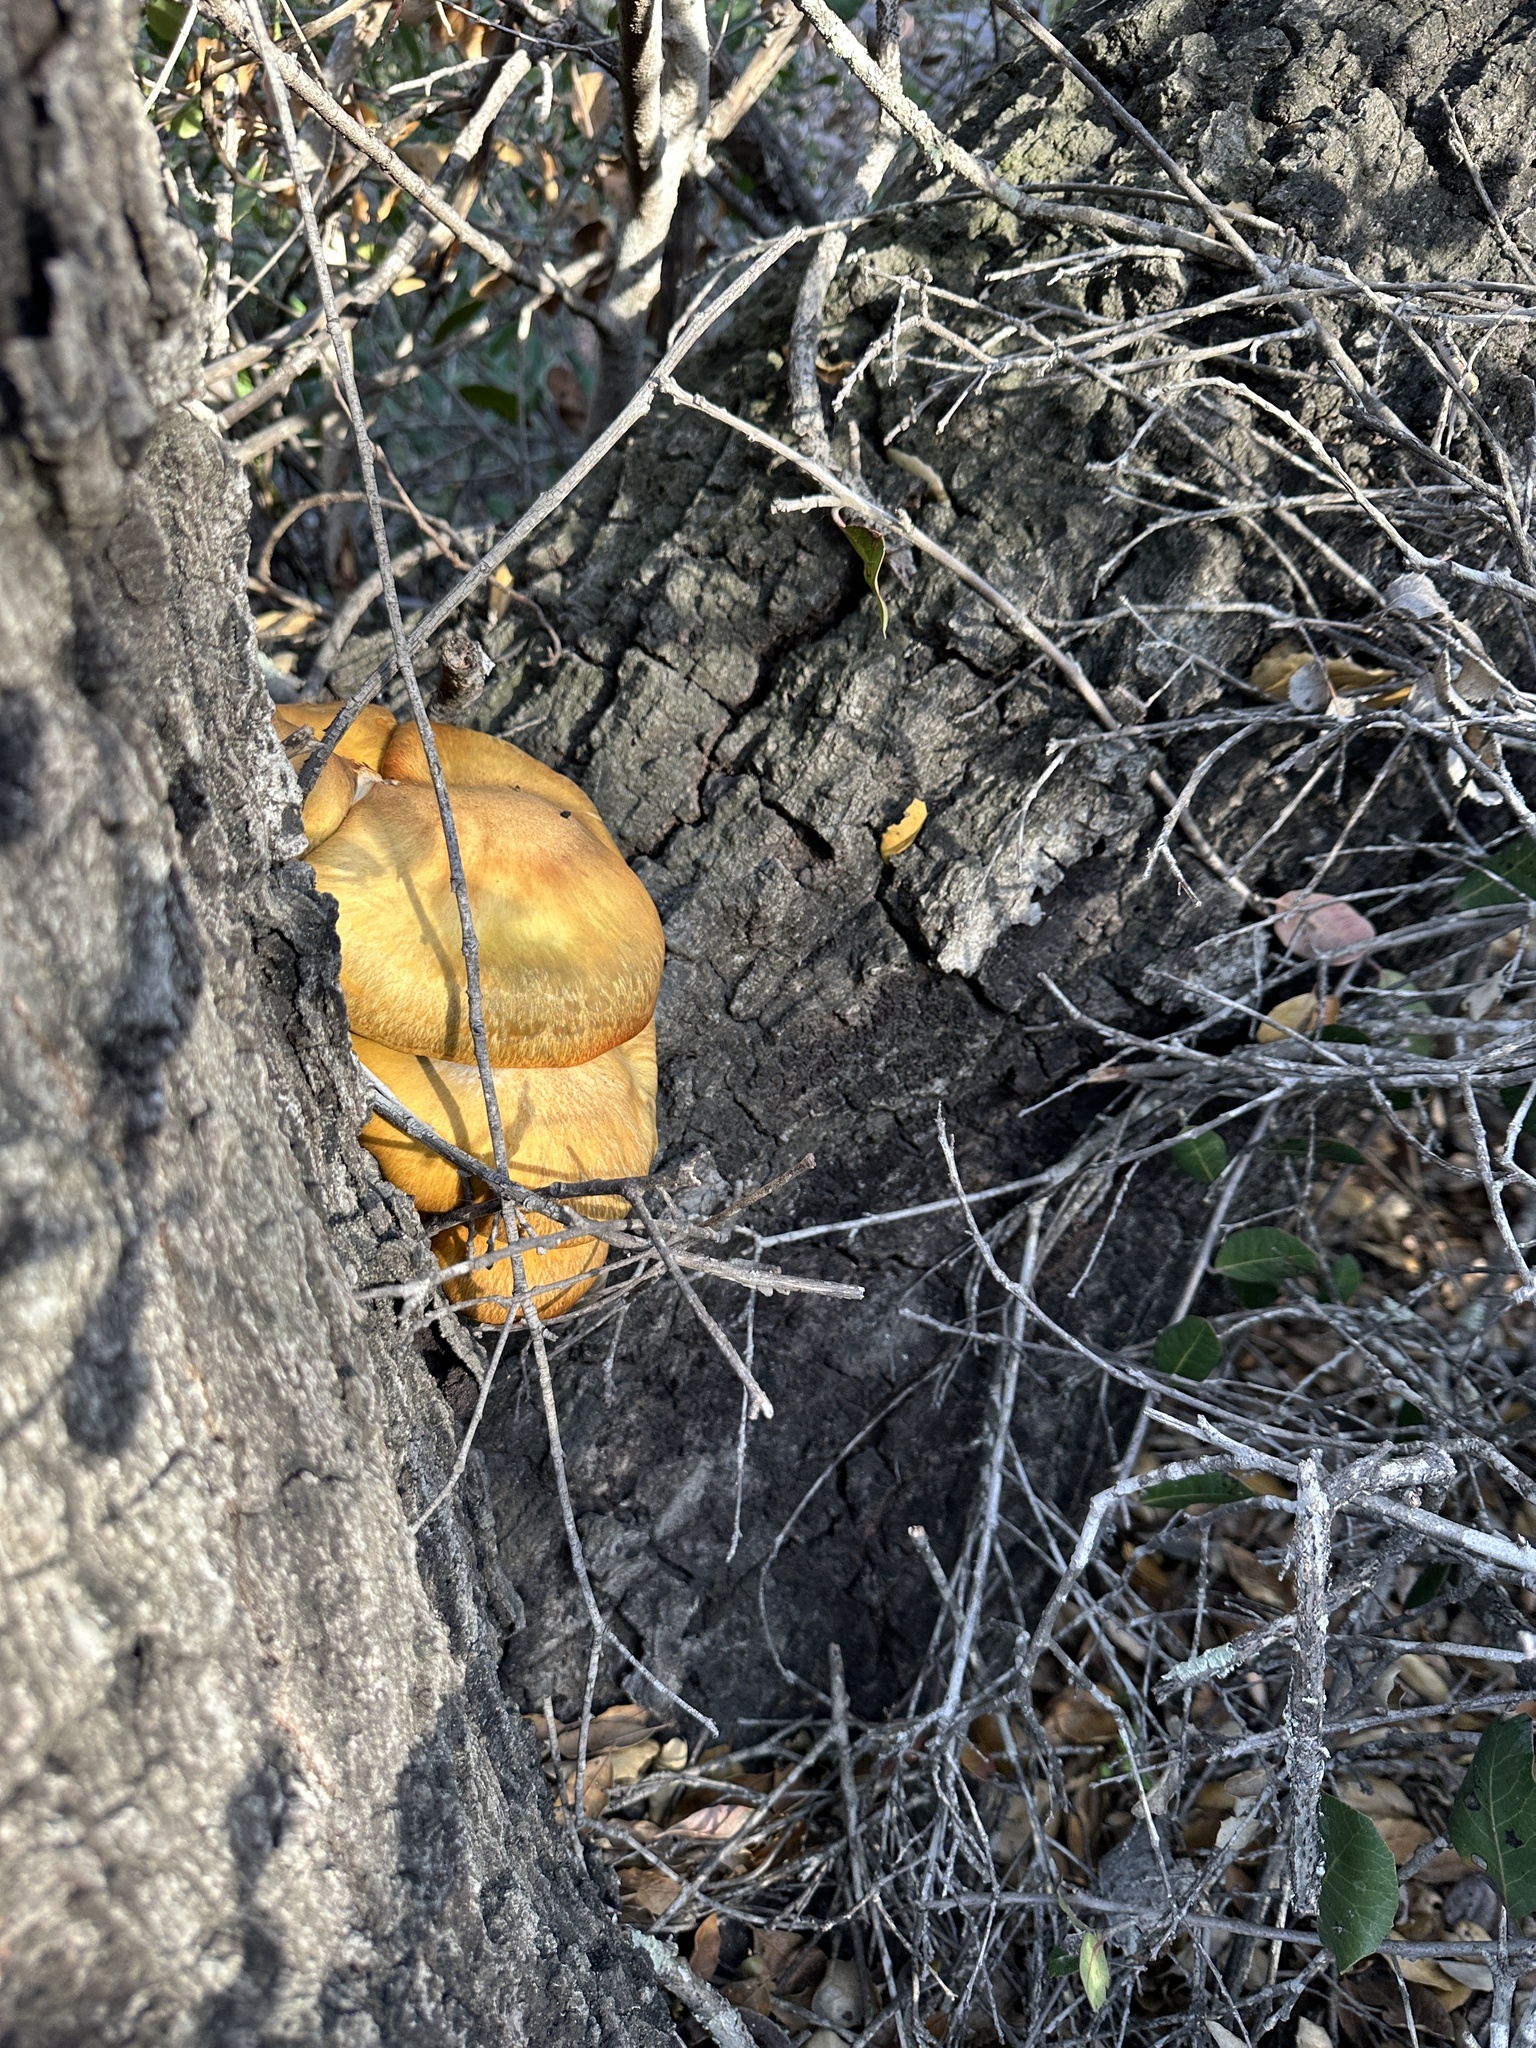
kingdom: Fungi
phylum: Basidiomycota
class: Agaricomycetes
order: Agaricales
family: Omphalotaceae
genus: Omphalotus
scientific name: Omphalotus olivascens
